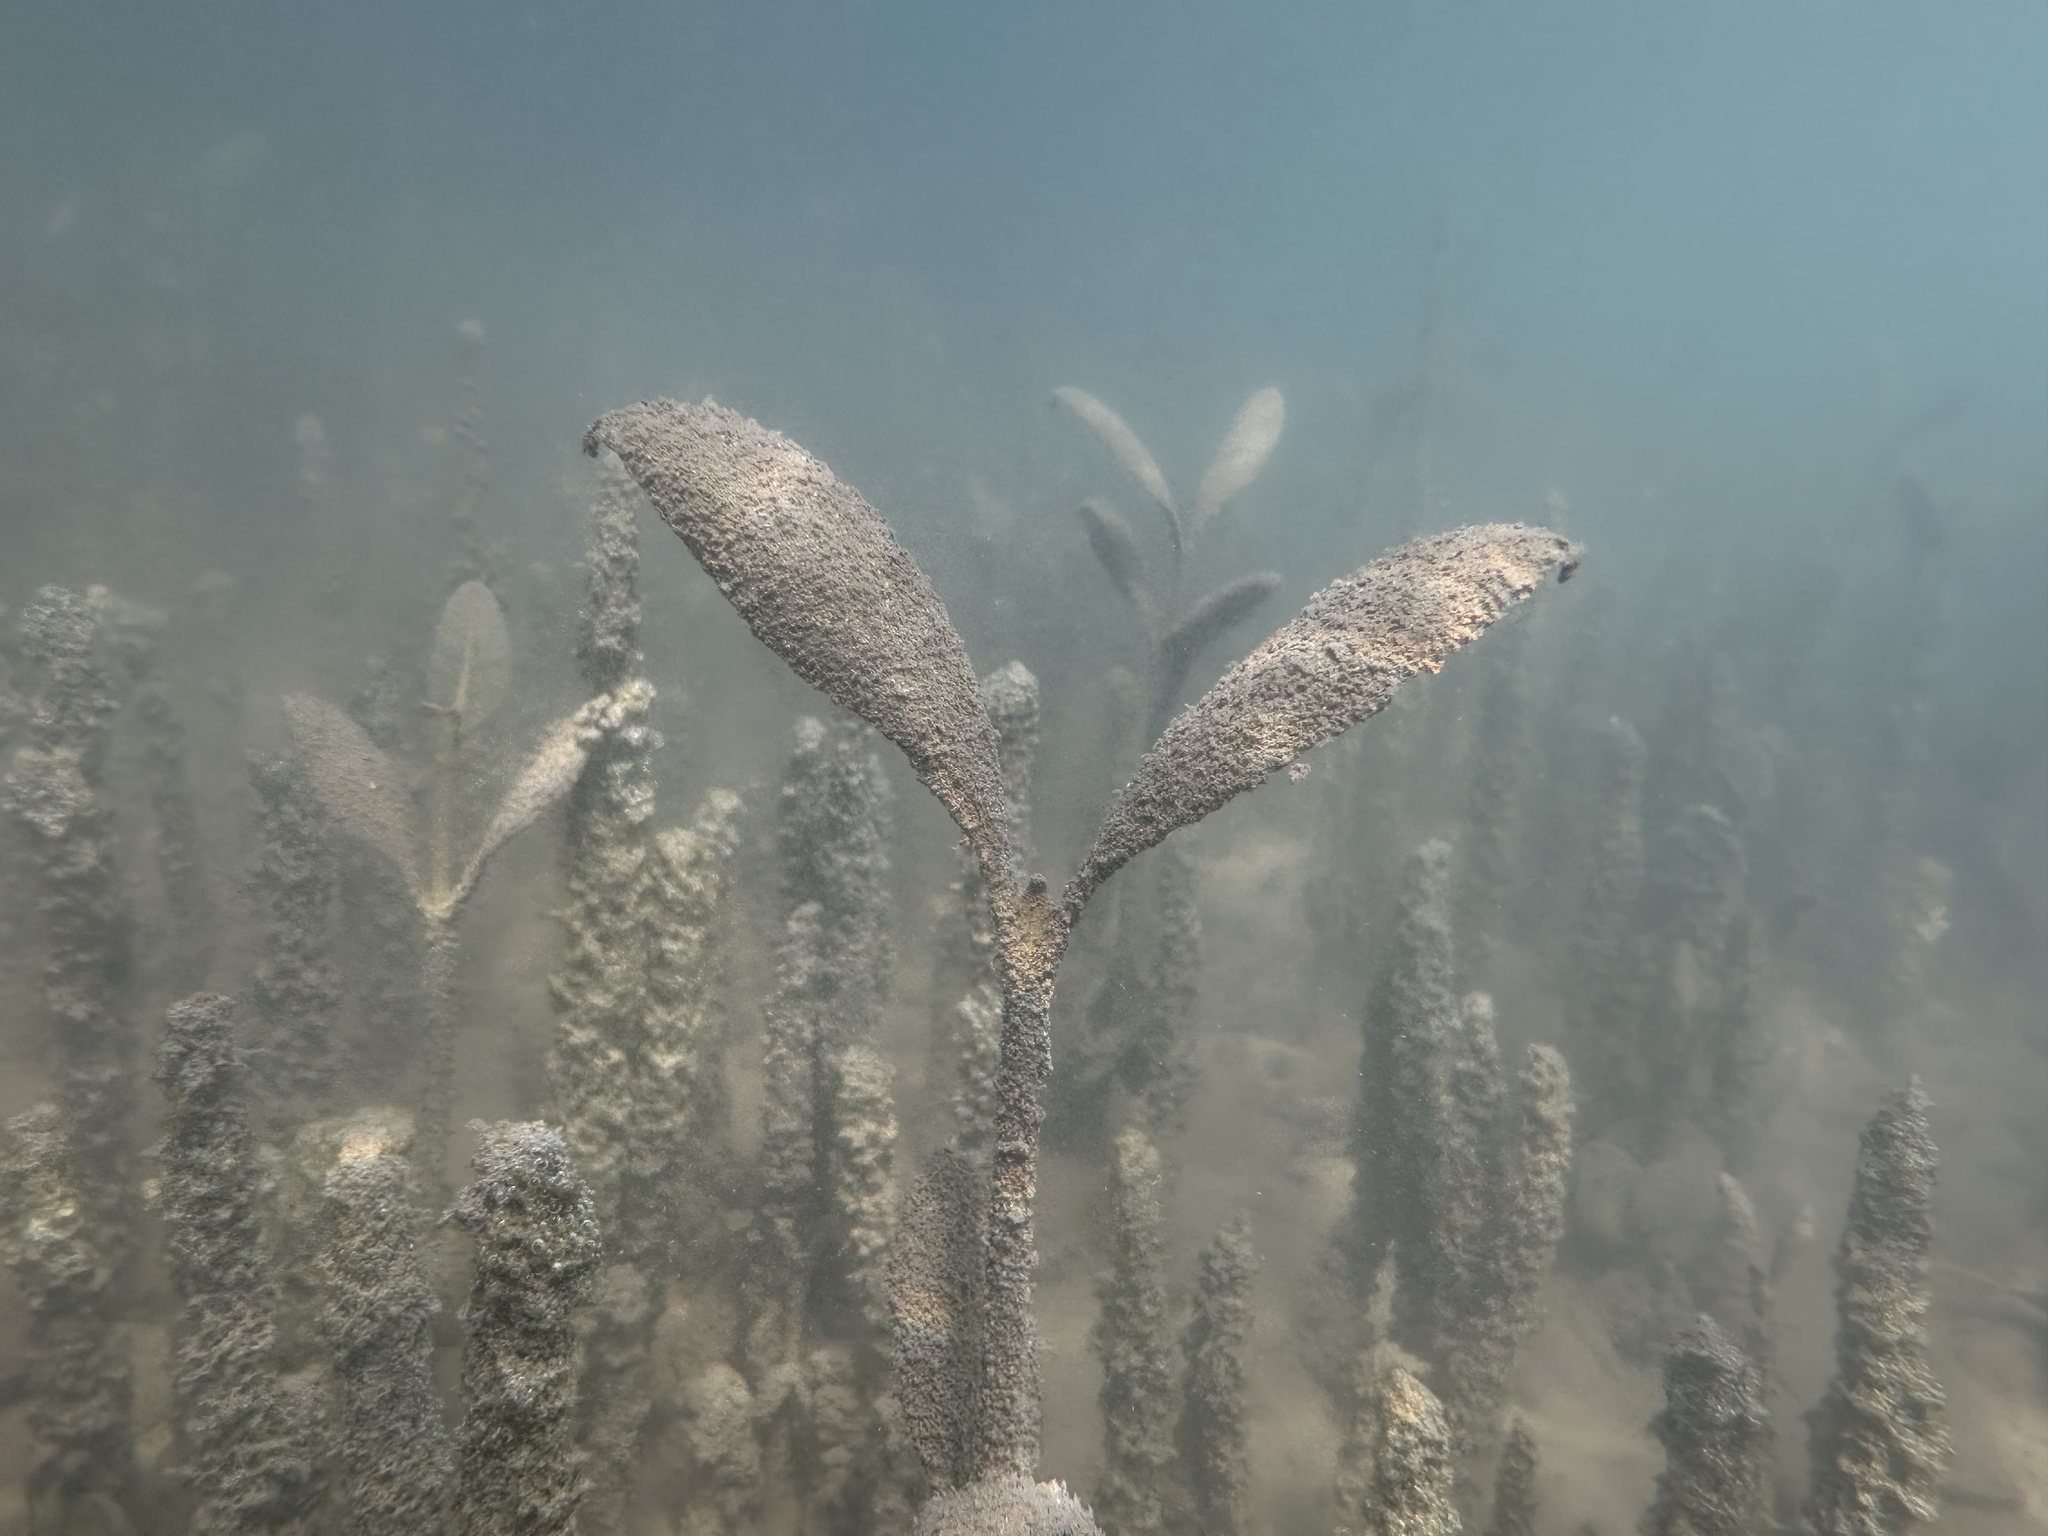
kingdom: Plantae
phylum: Tracheophyta
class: Magnoliopsida
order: Lamiales
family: Acanthaceae
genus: Avicennia
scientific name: Avicennia marina
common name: Gray mangrove
